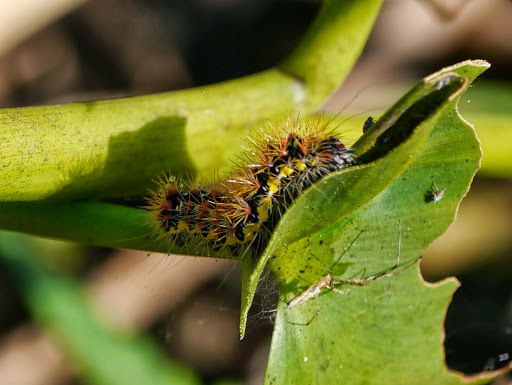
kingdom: Animalia
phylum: Arthropoda
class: Insecta
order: Lepidoptera
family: Noctuidae
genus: Acronicta
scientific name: Acronicta oblinita
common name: Smeared dagger
